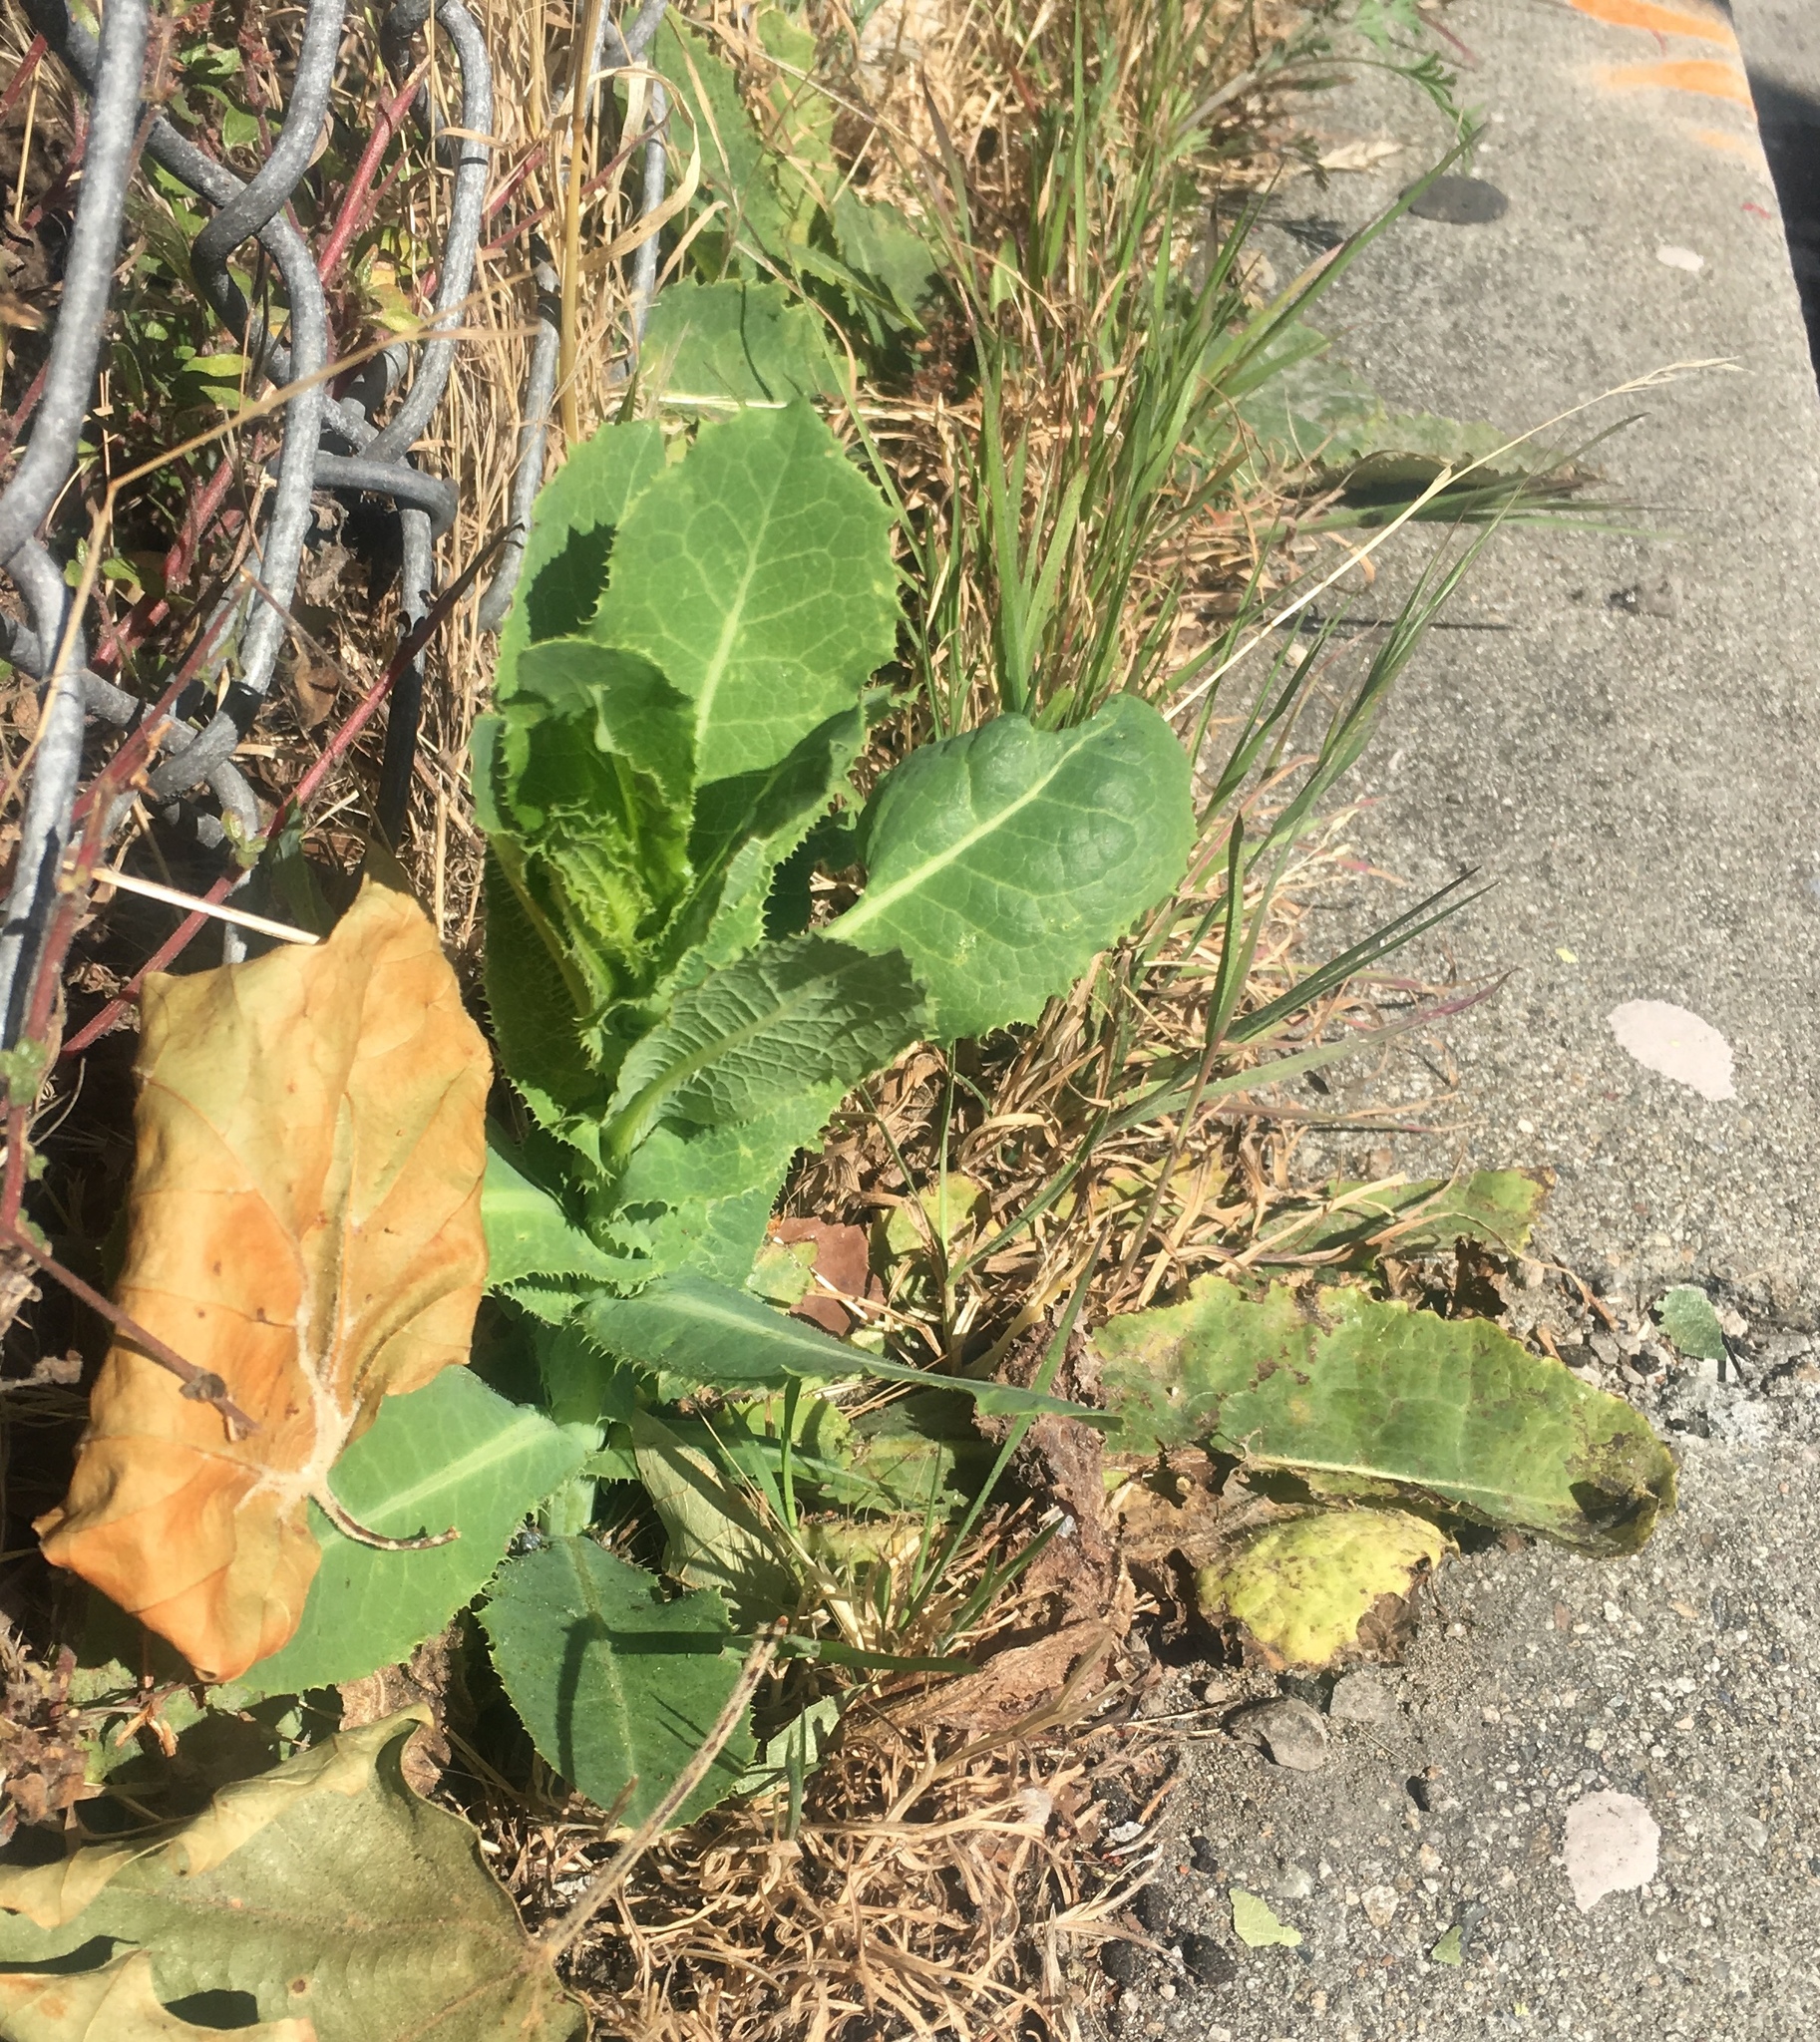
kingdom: Plantae
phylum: Tracheophyta
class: Magnoliopsida
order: Asterales
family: Asteraceae
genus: Lactuca
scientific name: Lactuca serriola
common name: Prickly lettuce
